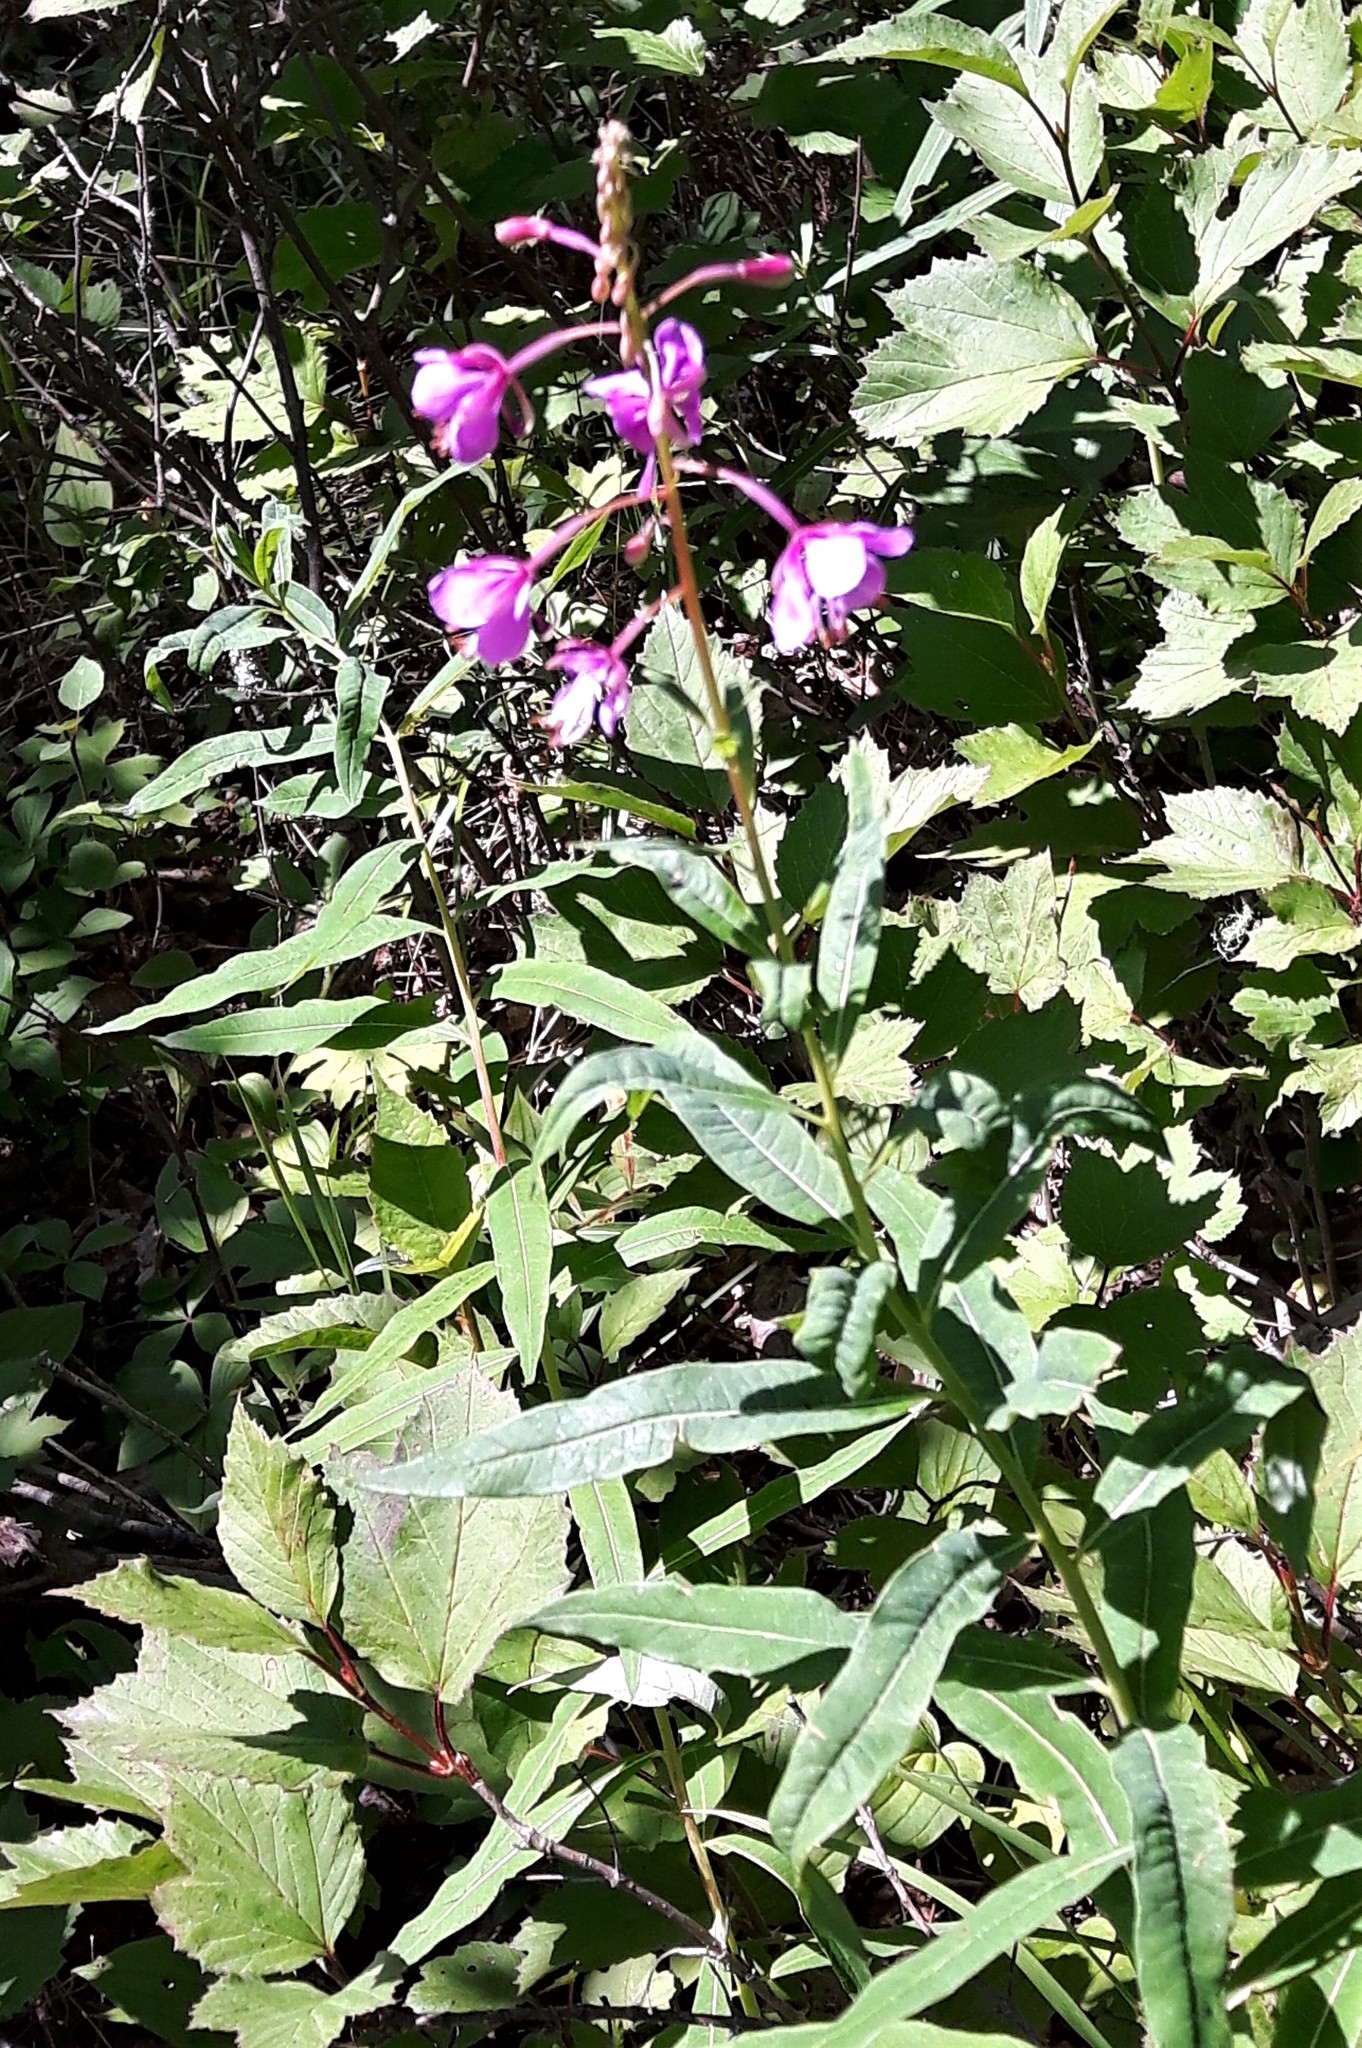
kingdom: Plantae
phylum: Tracheophyta
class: Magnoliopsida
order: Myrtales
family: Onagraceae
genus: Chamaenerion
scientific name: Chamaenerion angustifolium
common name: Fireweed
